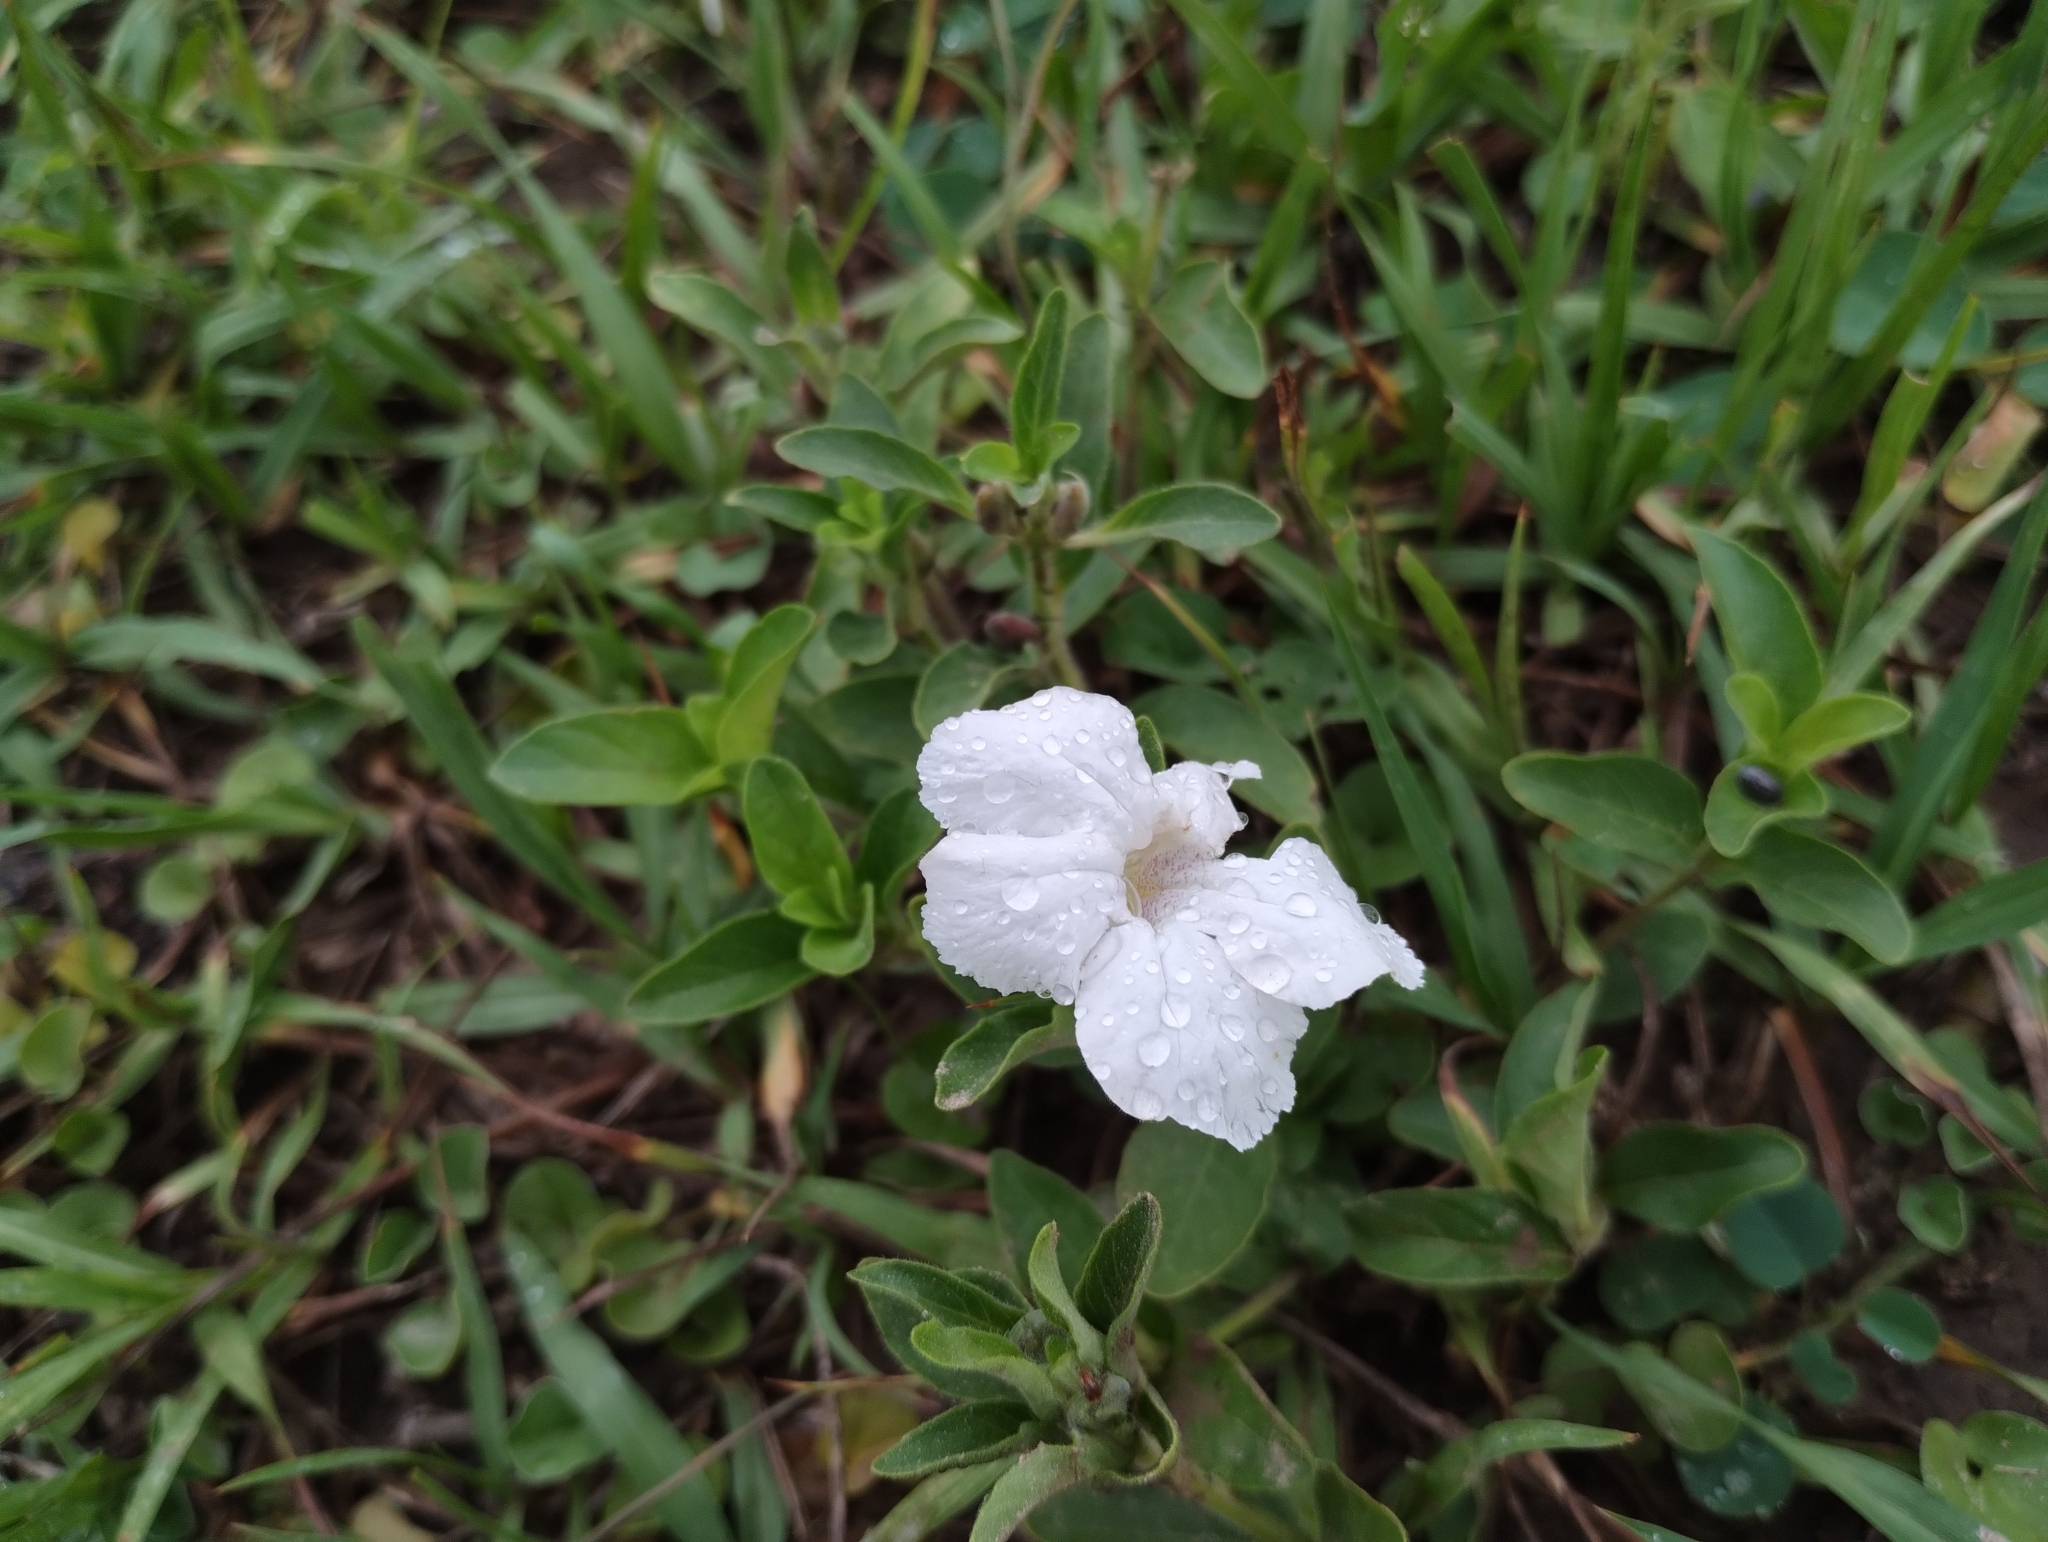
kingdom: Plantae
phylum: Tracheophyta
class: Magnoliopsida
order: Lamiales
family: Acanthaceae
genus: Ruellia
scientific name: Ruellia geminiflora
